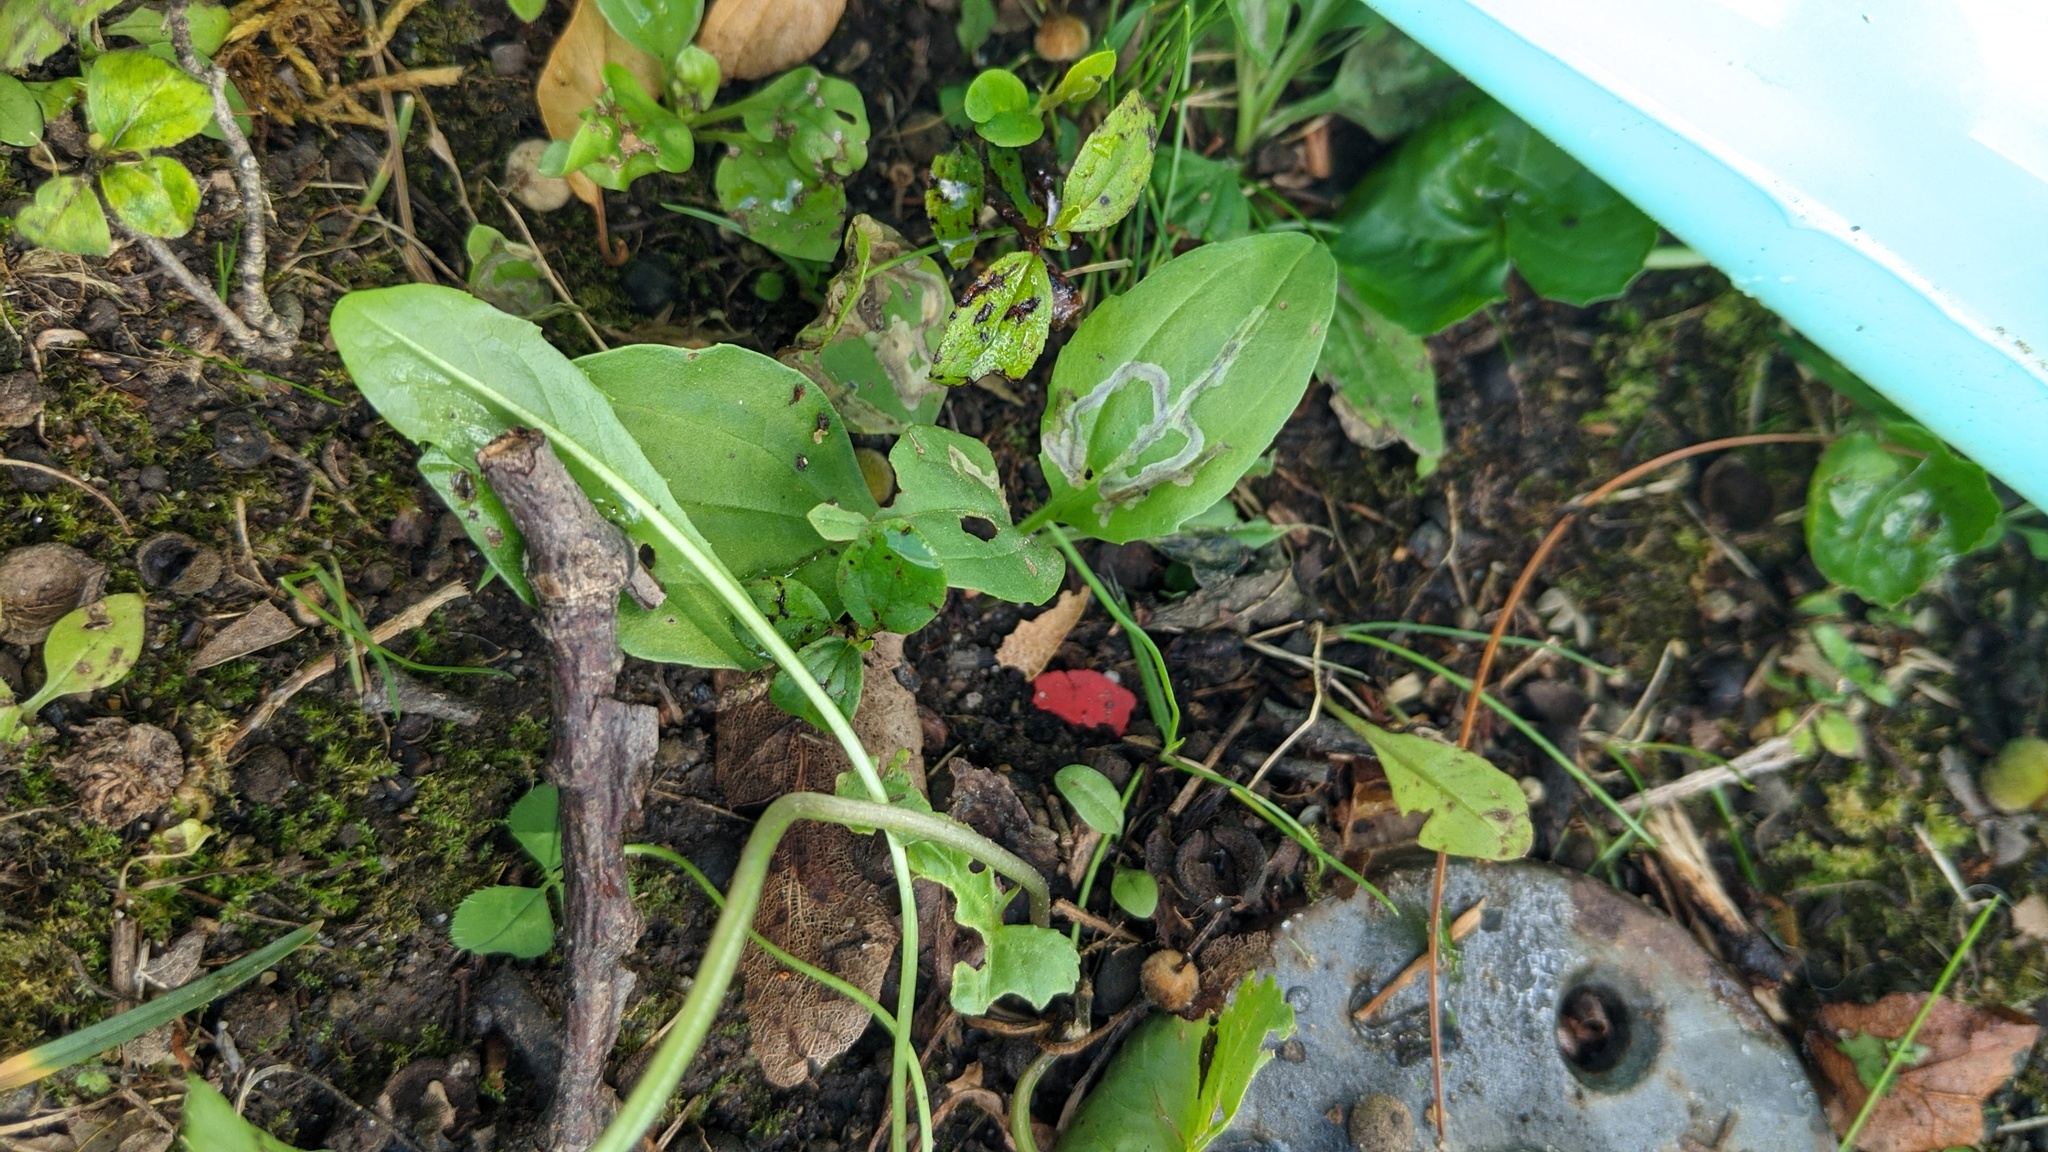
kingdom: Animalia
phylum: Arthropoda
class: Insecta
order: Coleoptera
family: Chrysomelidae
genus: Dibolia
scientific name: Dibolia borealis
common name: Northern plantain flea beetle
